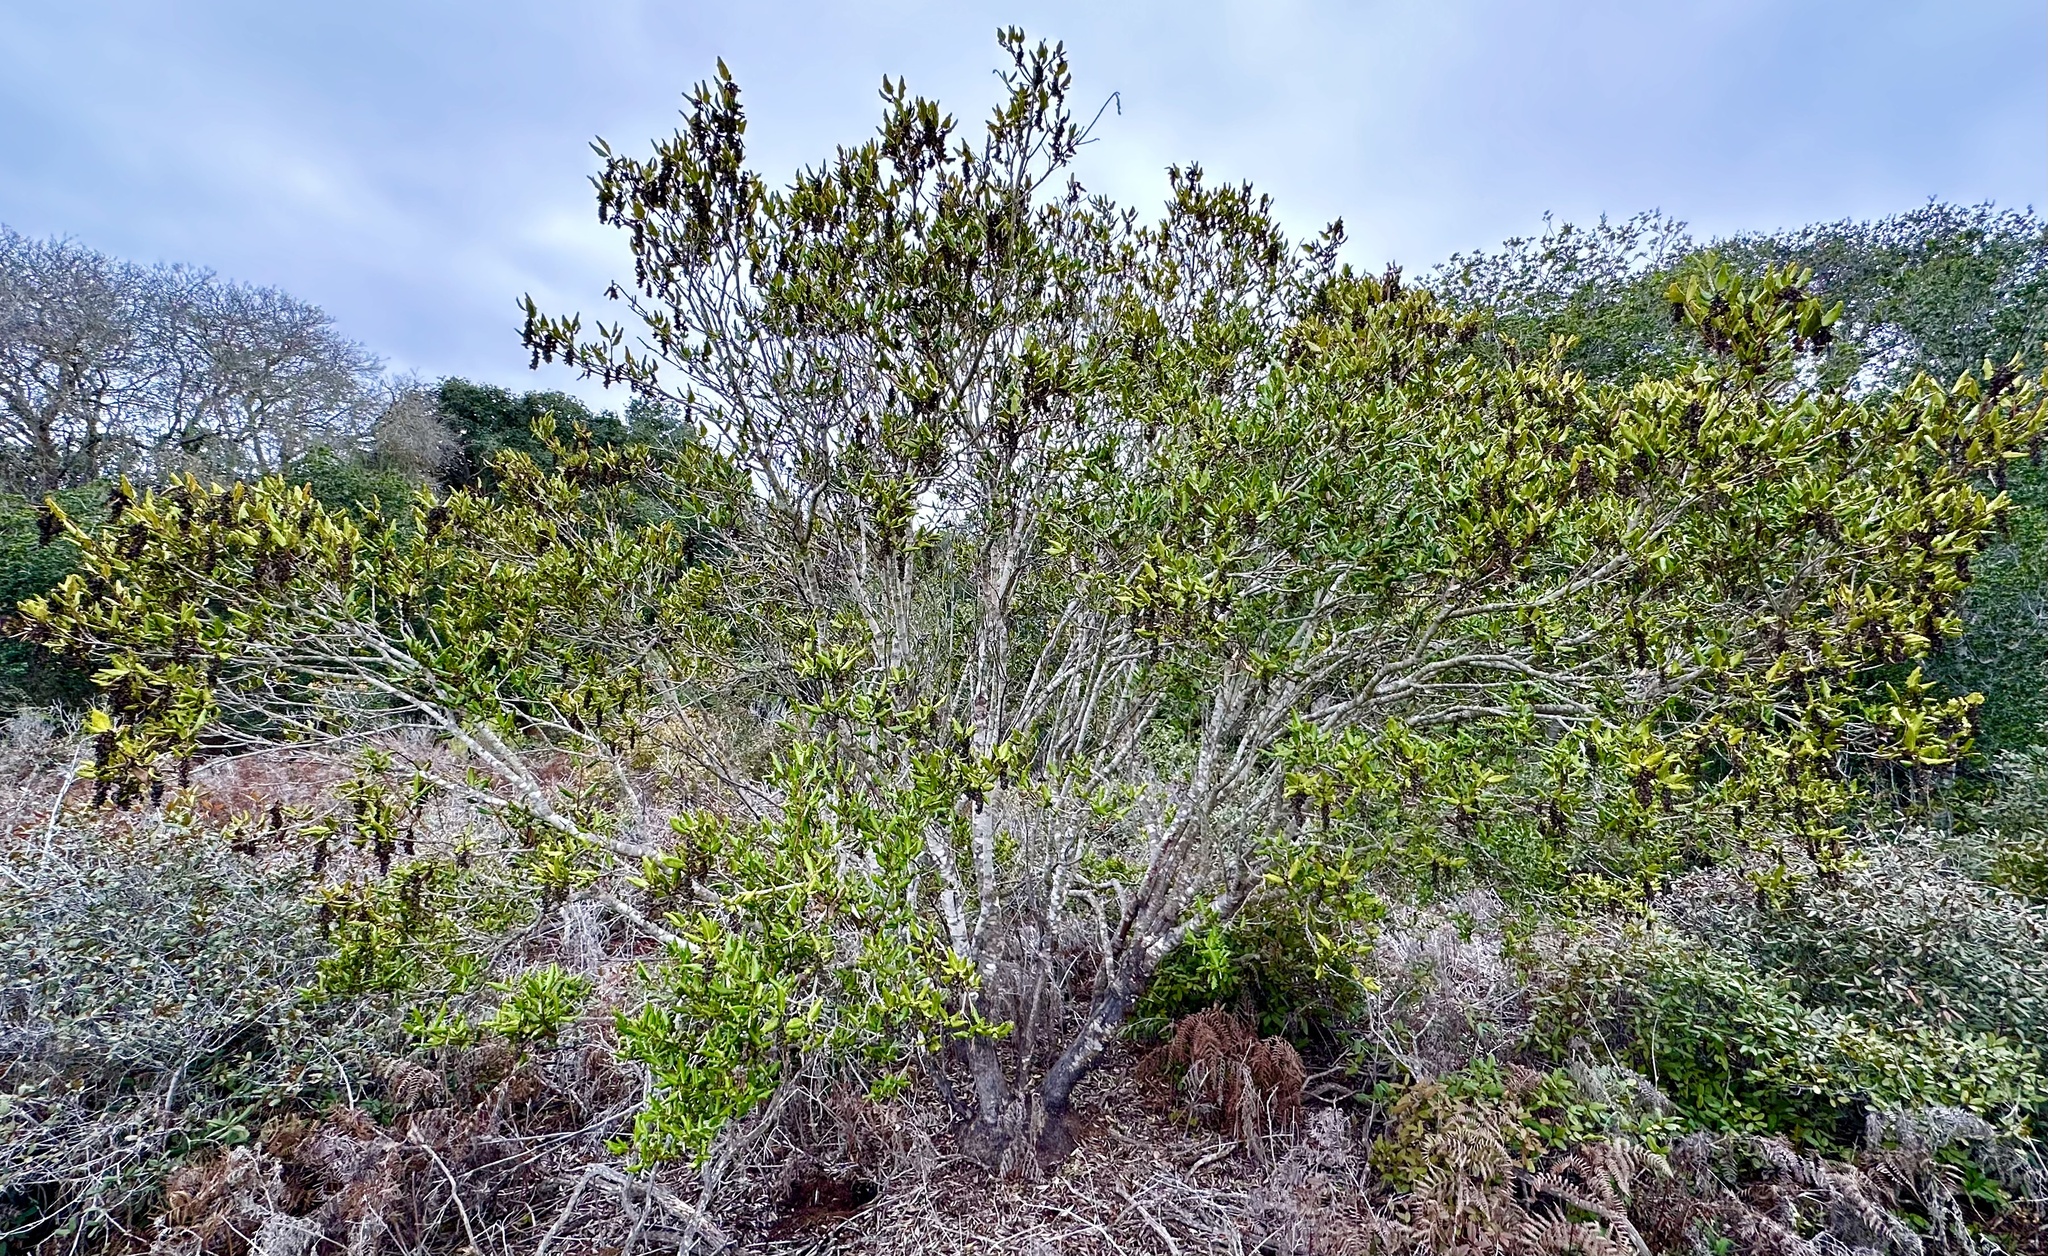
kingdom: Plantae
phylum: Tracheophyta
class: Magnoliopsida
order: Garryales
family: Garryaceae
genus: Garrya
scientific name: Garrya elliptica
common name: Silk-tassel
